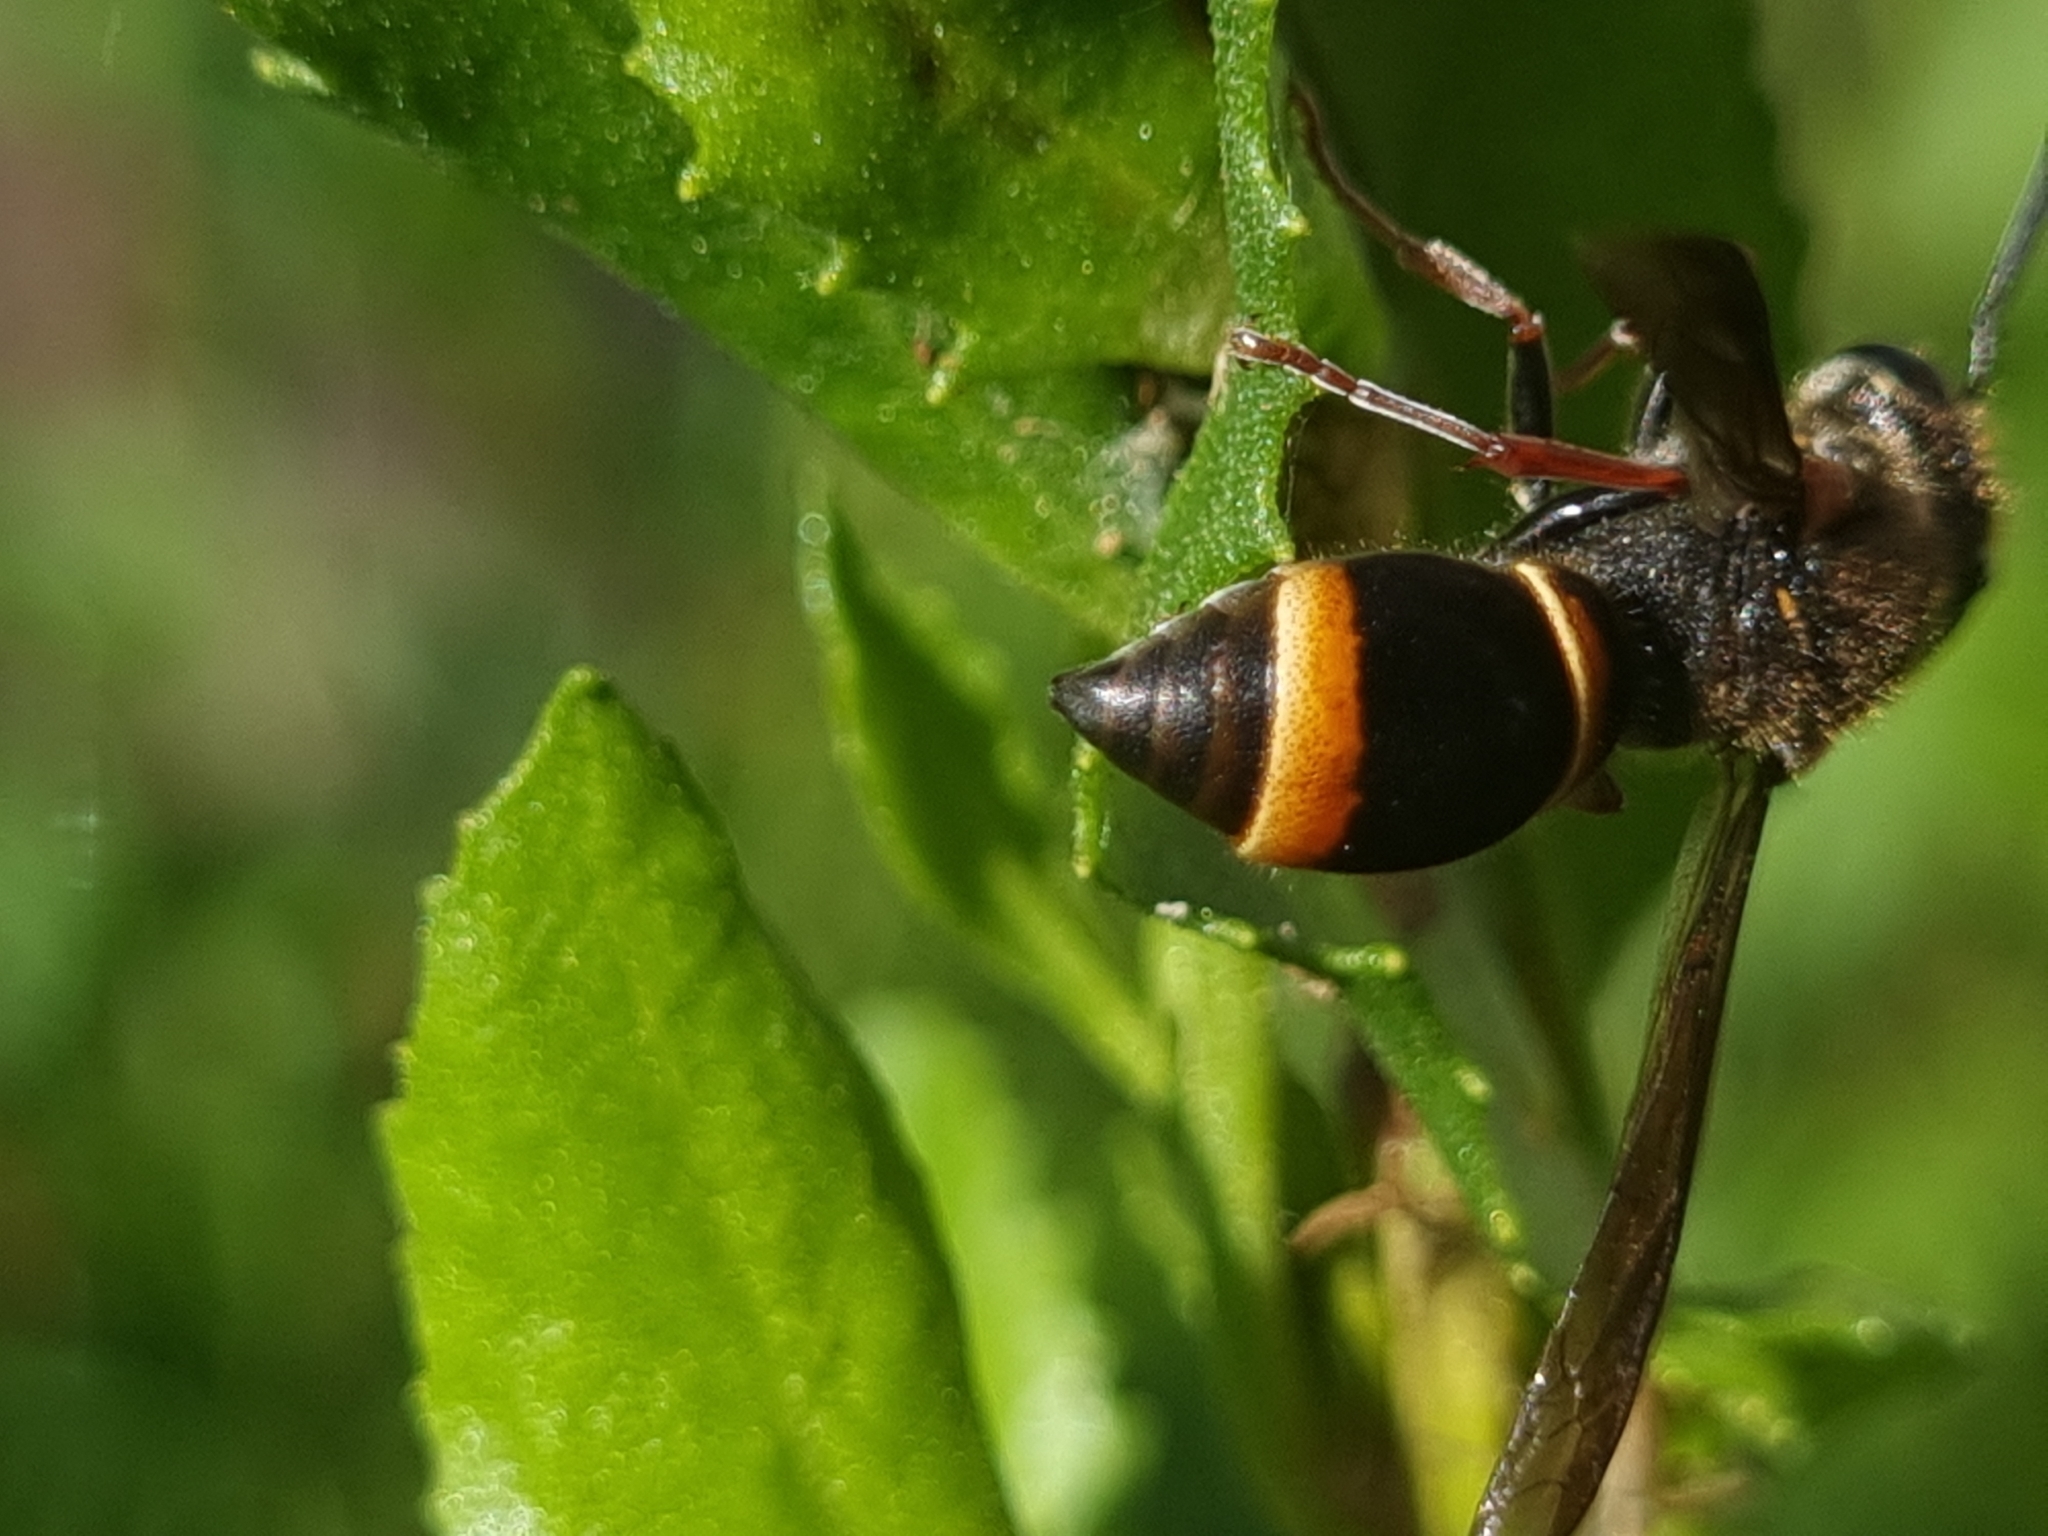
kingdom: Animalia
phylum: Arthropoda
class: Insecta
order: Hymenoptera
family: Eumenidae
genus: Paralastor
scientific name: Paralastor
